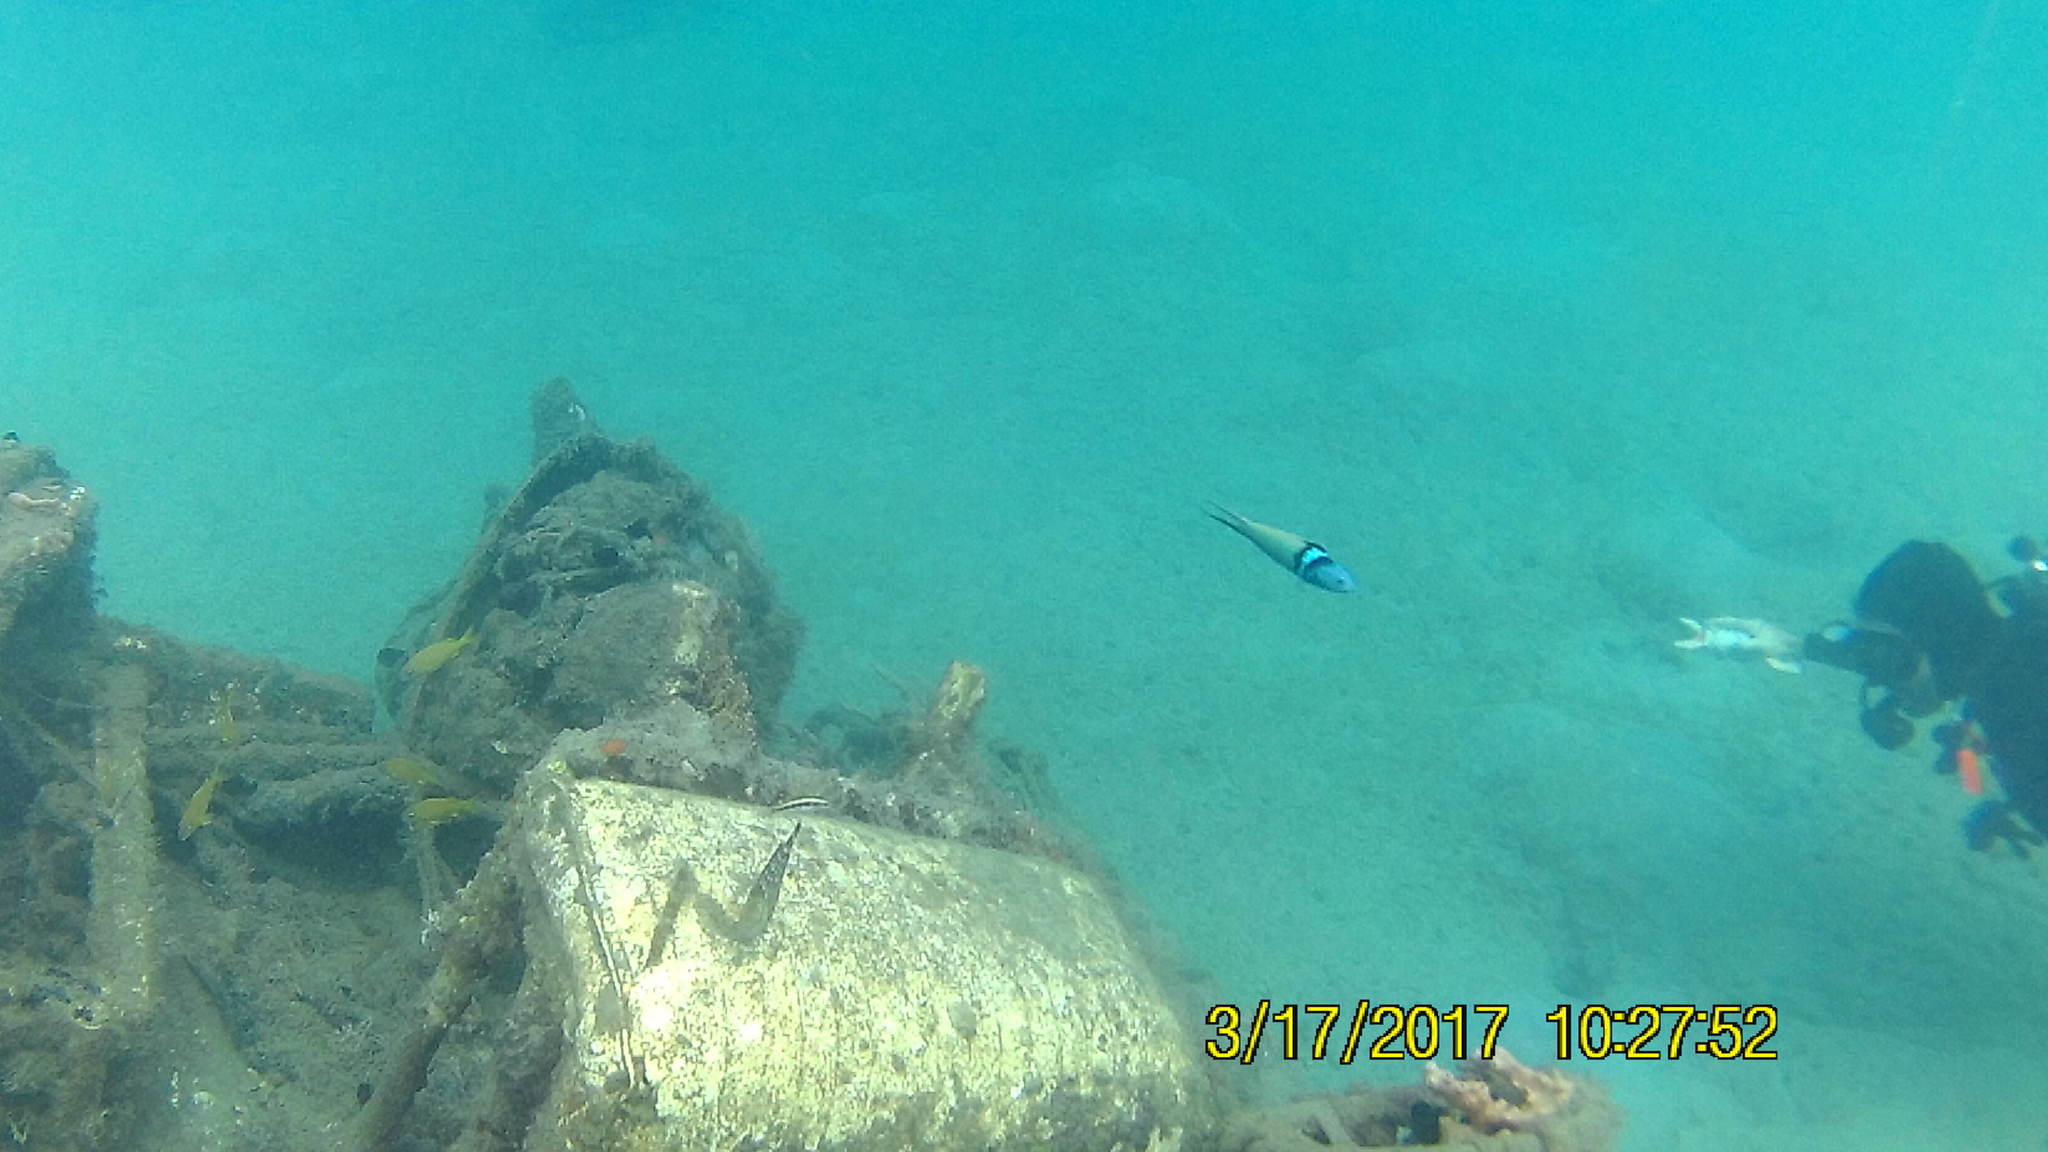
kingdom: Animalia
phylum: Chordata
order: Perciformes
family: Labridae
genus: Thalassoma
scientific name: Thalassoma bifasciatum
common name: Bluehead wrasse
